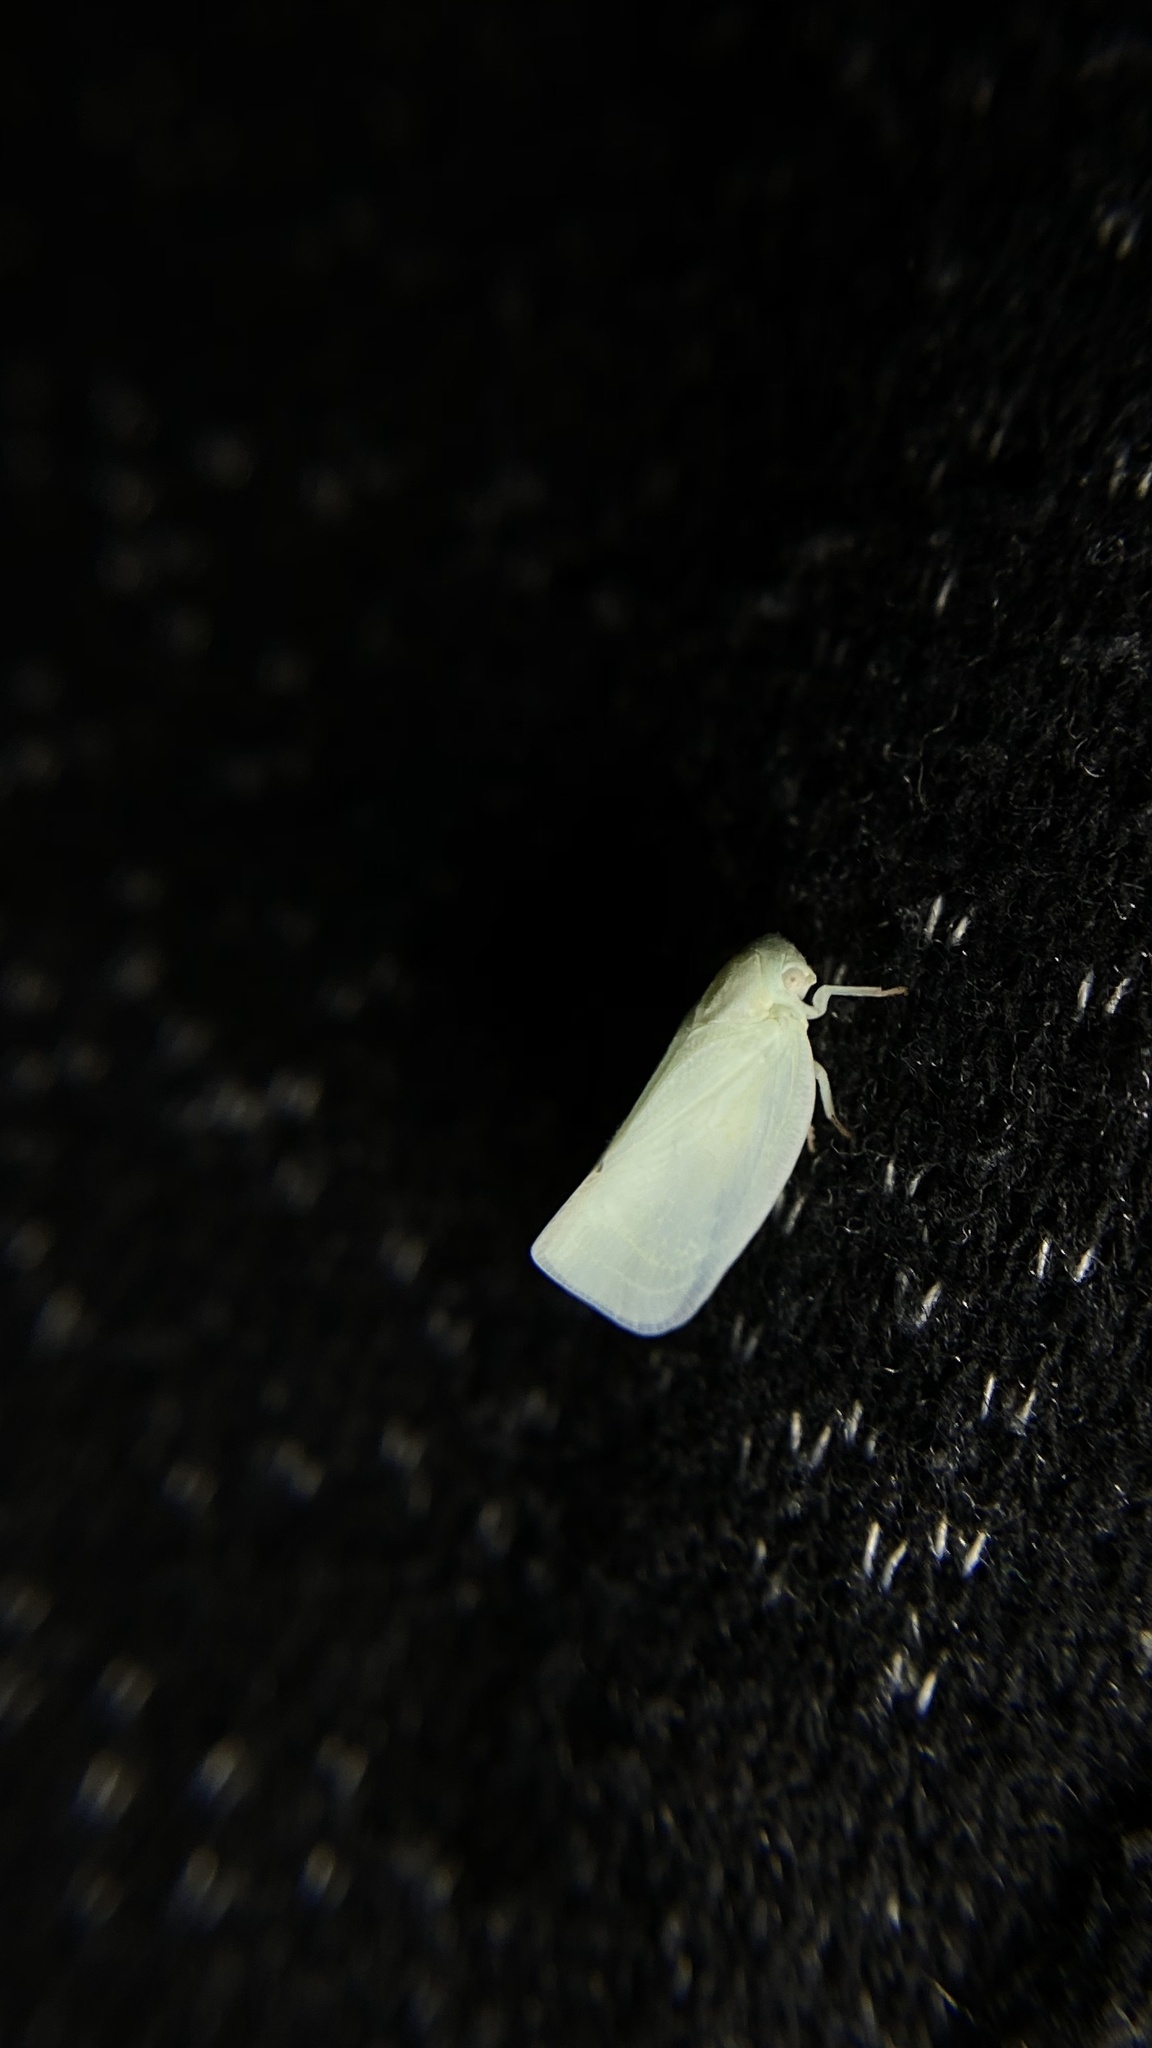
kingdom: Animalia
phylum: Arthropoda
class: Insecta
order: Hemiptera
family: Flatidae
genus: Flatormenis
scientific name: Flatormenis proxima
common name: Northern flatid planthopper
